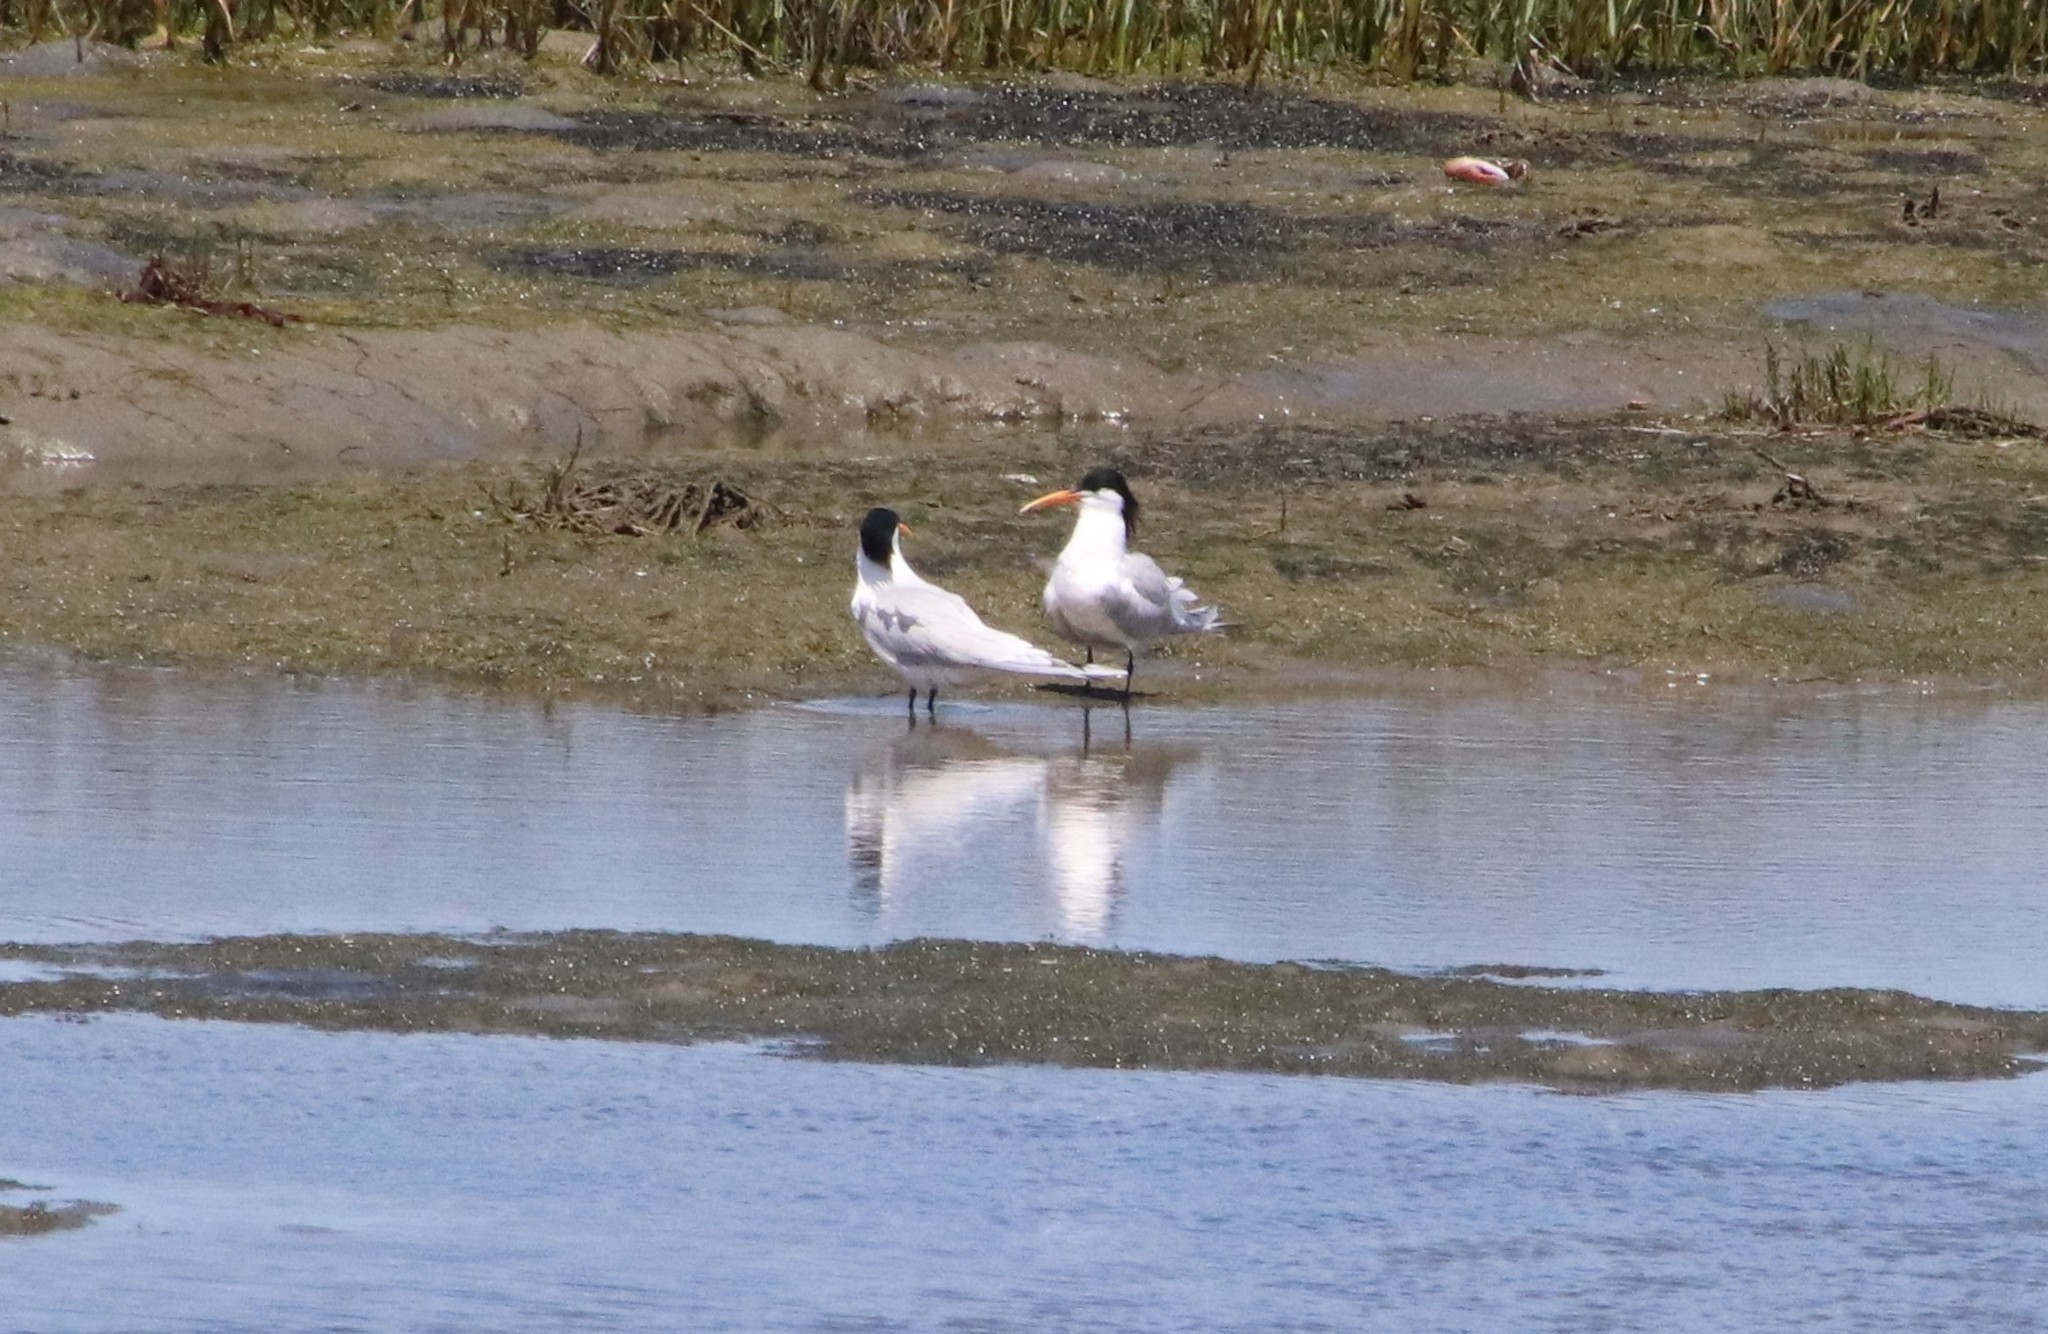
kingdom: Animalia
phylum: Chordata
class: Aves
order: Charadriiformes
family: Laridae
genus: Thalasseus
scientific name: Thalasseus elegans
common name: Elegant tern
